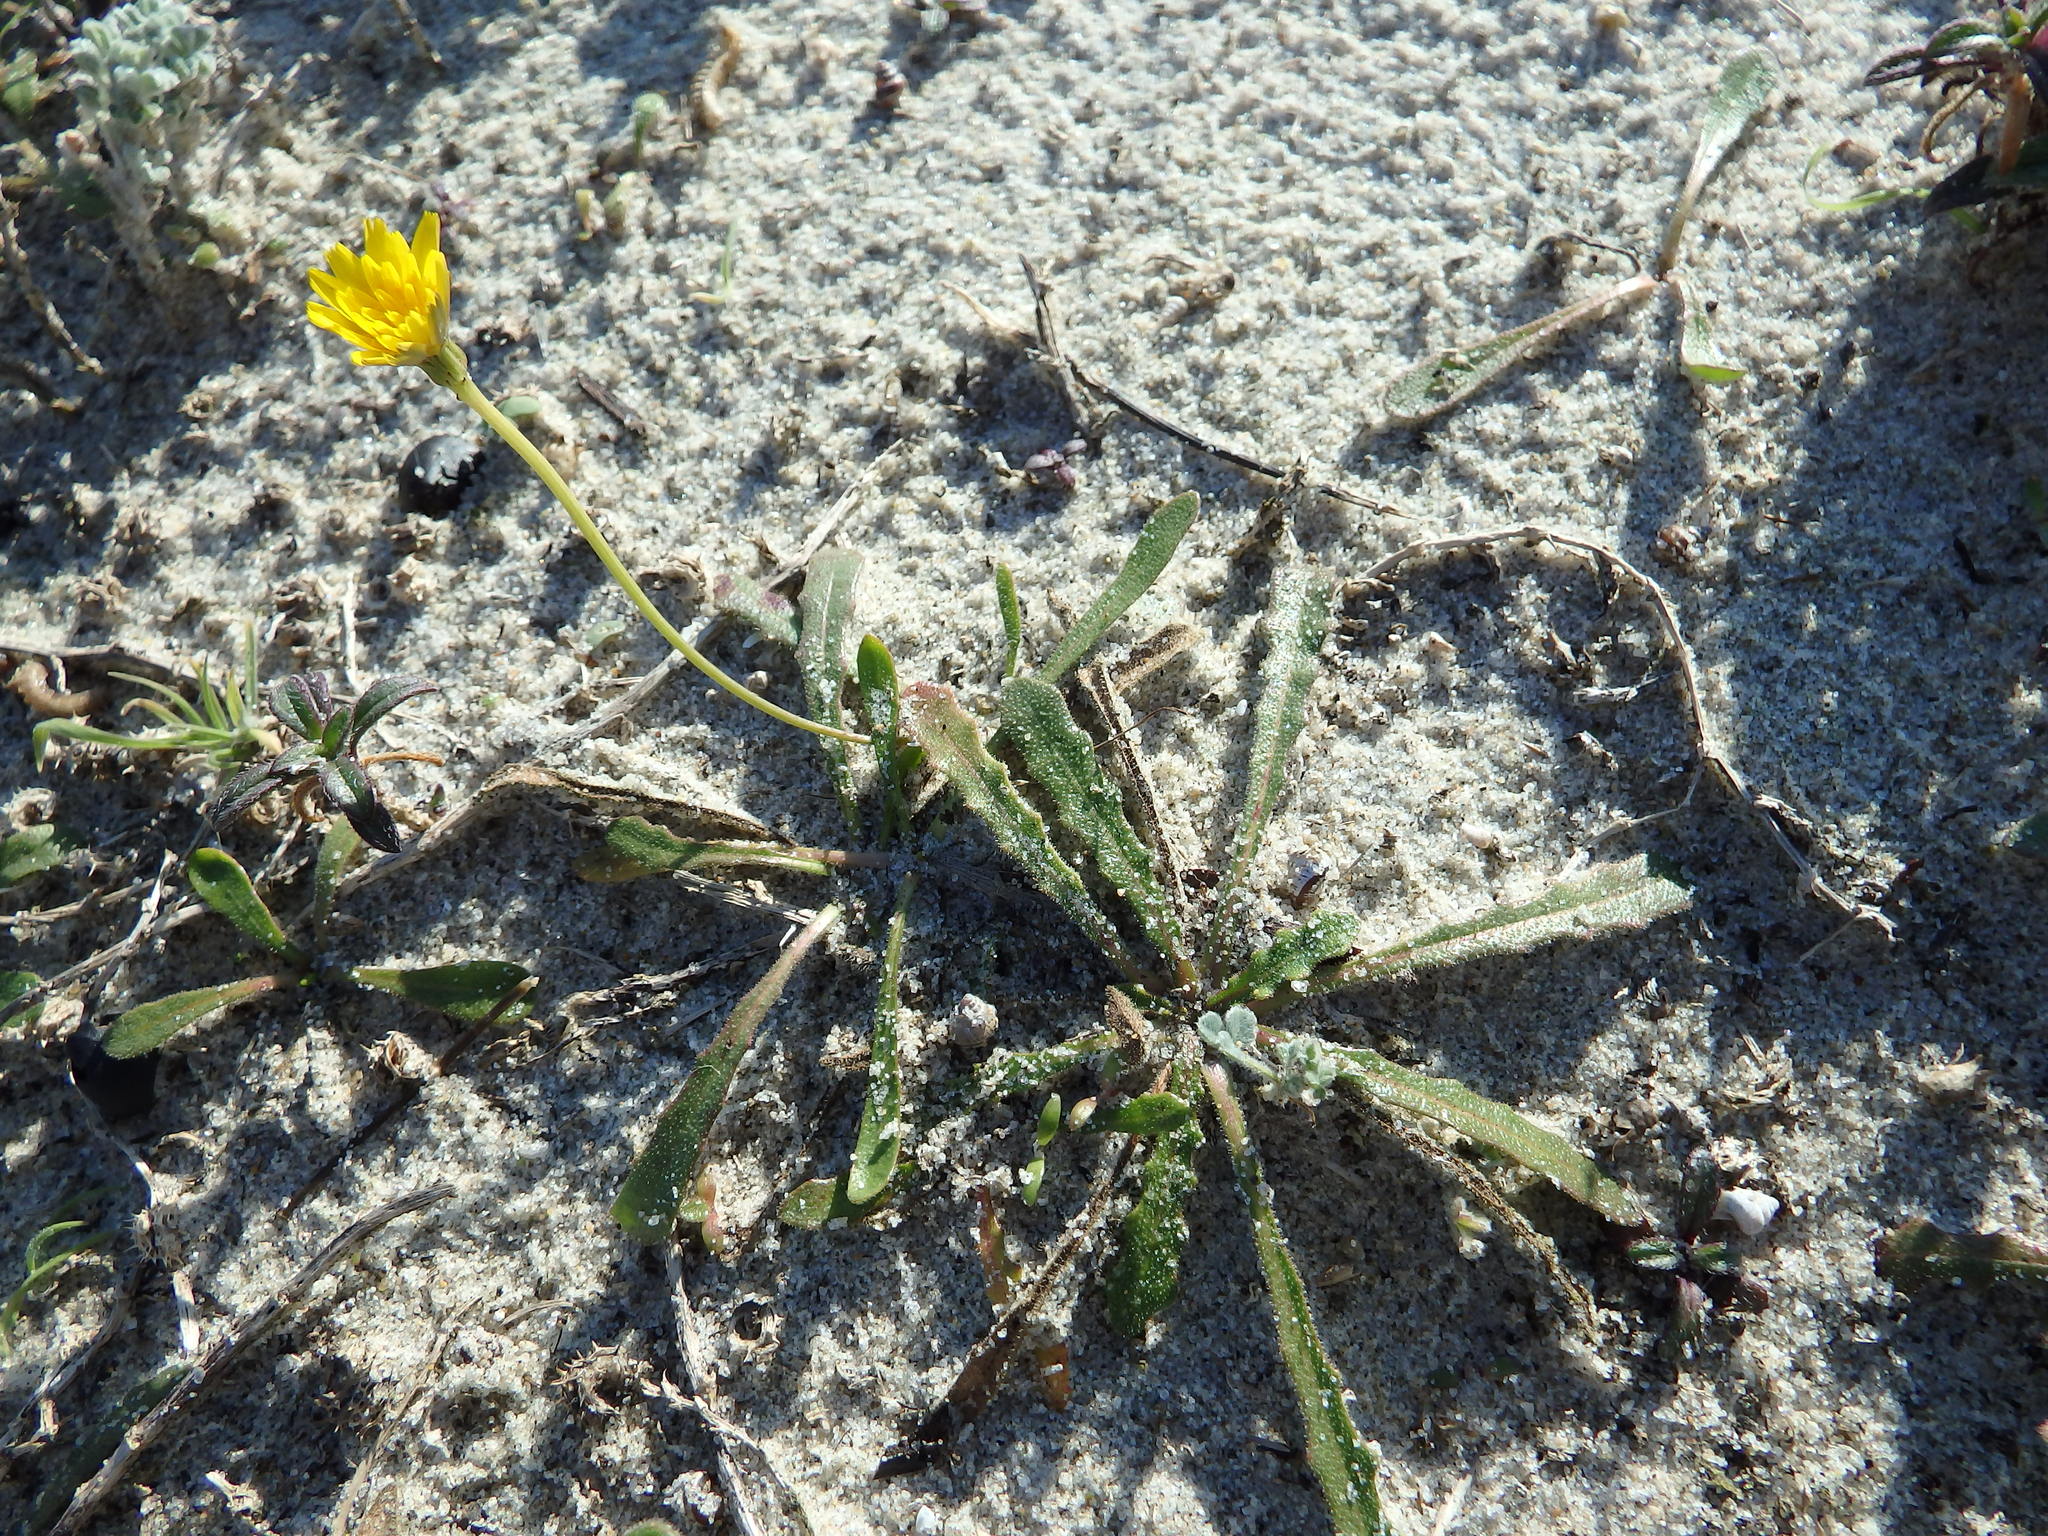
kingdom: Plantae
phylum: Tracheophyta
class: Magnoliopsida
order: Asterales
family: Asteraceae
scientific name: Asteraceae
